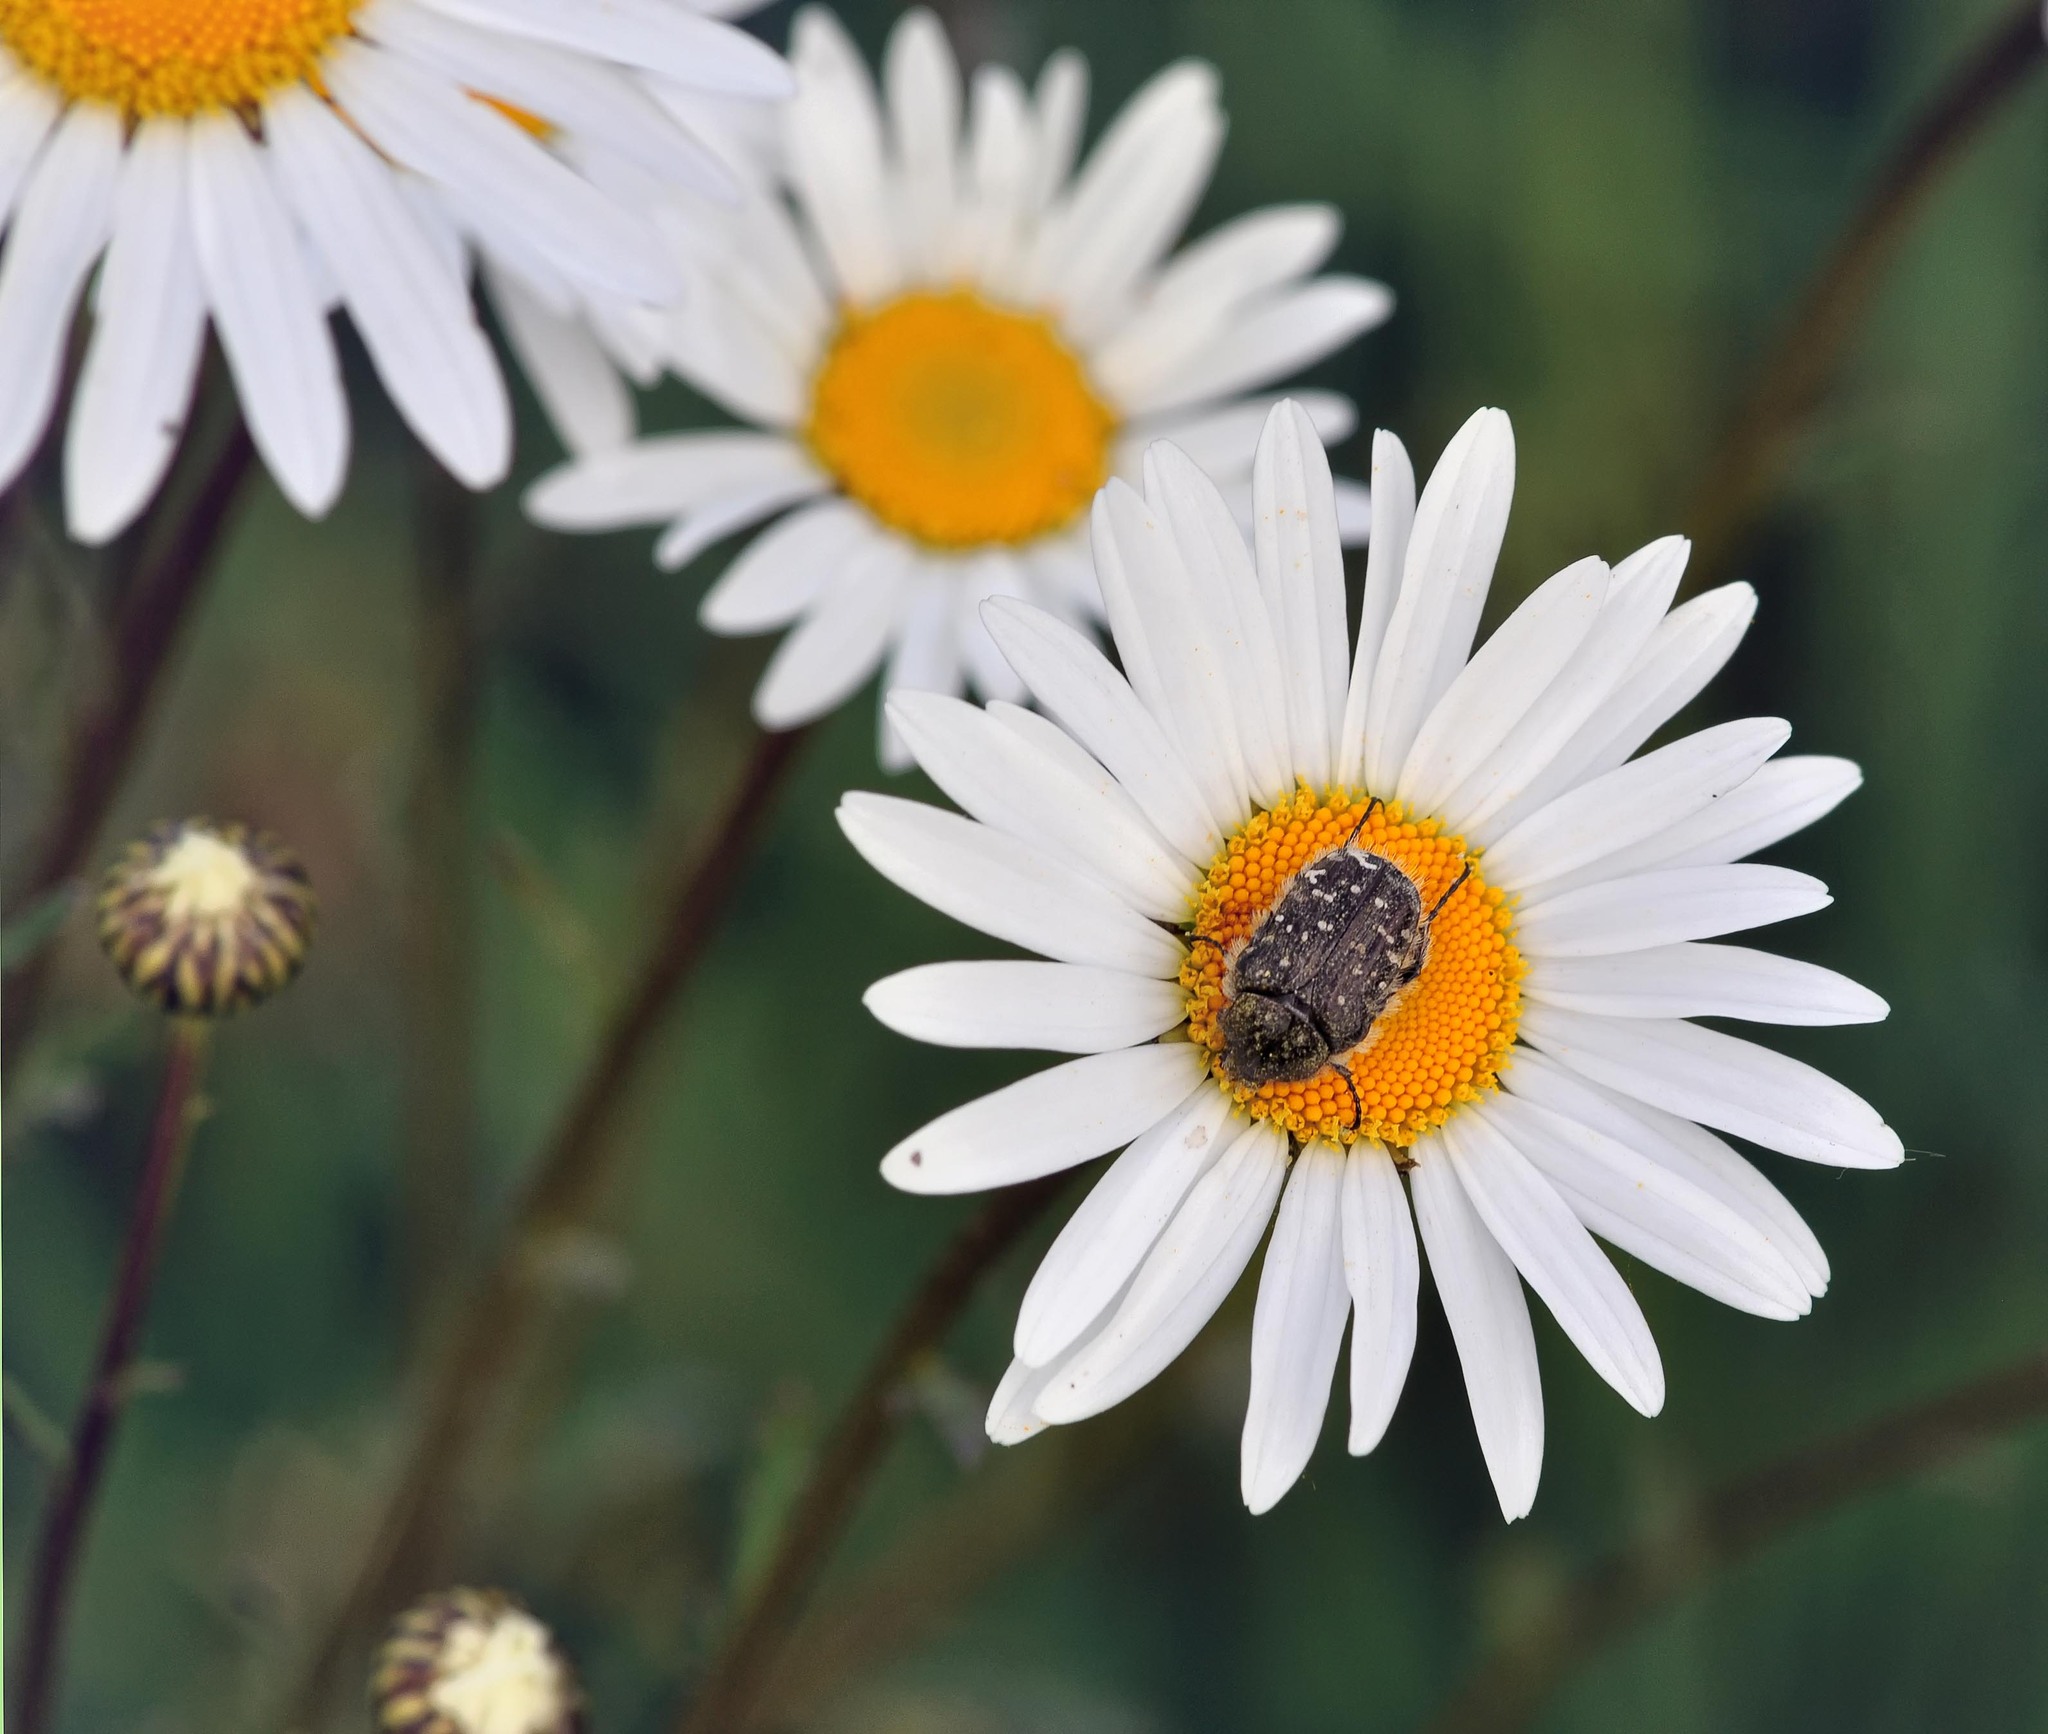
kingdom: Animalia
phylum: Arthropoda
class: Insecta
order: Coleoptera
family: Scarabaeidae
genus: Oxythyrea
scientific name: Oxythyrea funesta
